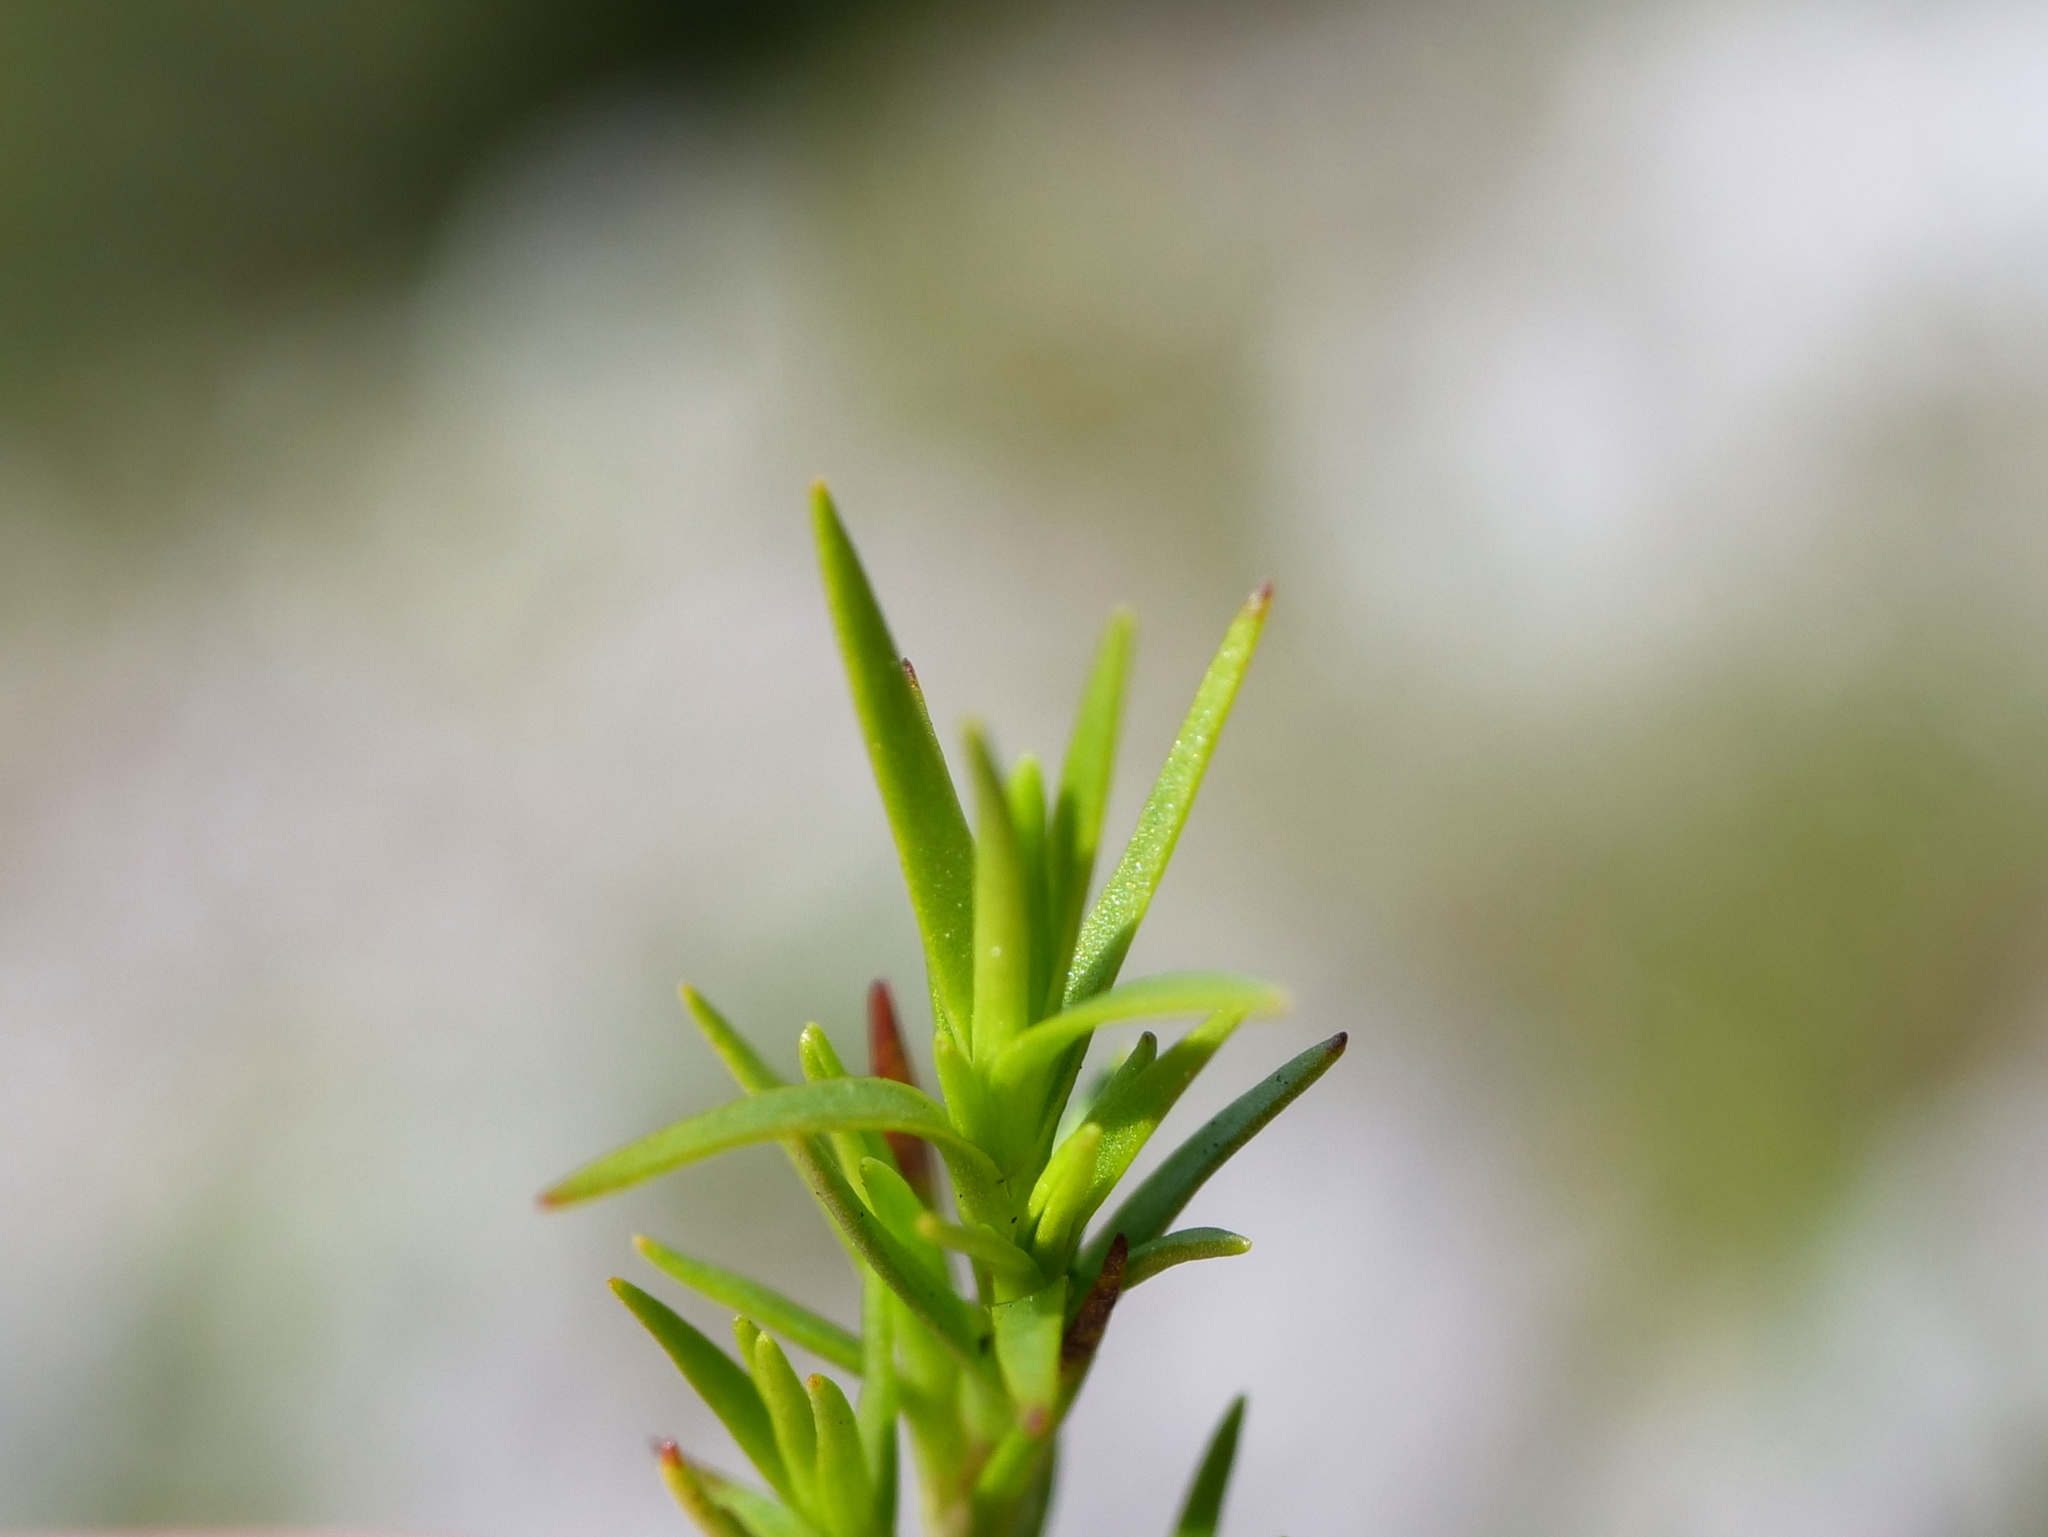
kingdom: Plantae
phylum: Tracheophyta
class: Magnoliopsida
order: Caryophyllales
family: Caryophyllaceae
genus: Sabulina
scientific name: Sabulina verna
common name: Spring sandwort
